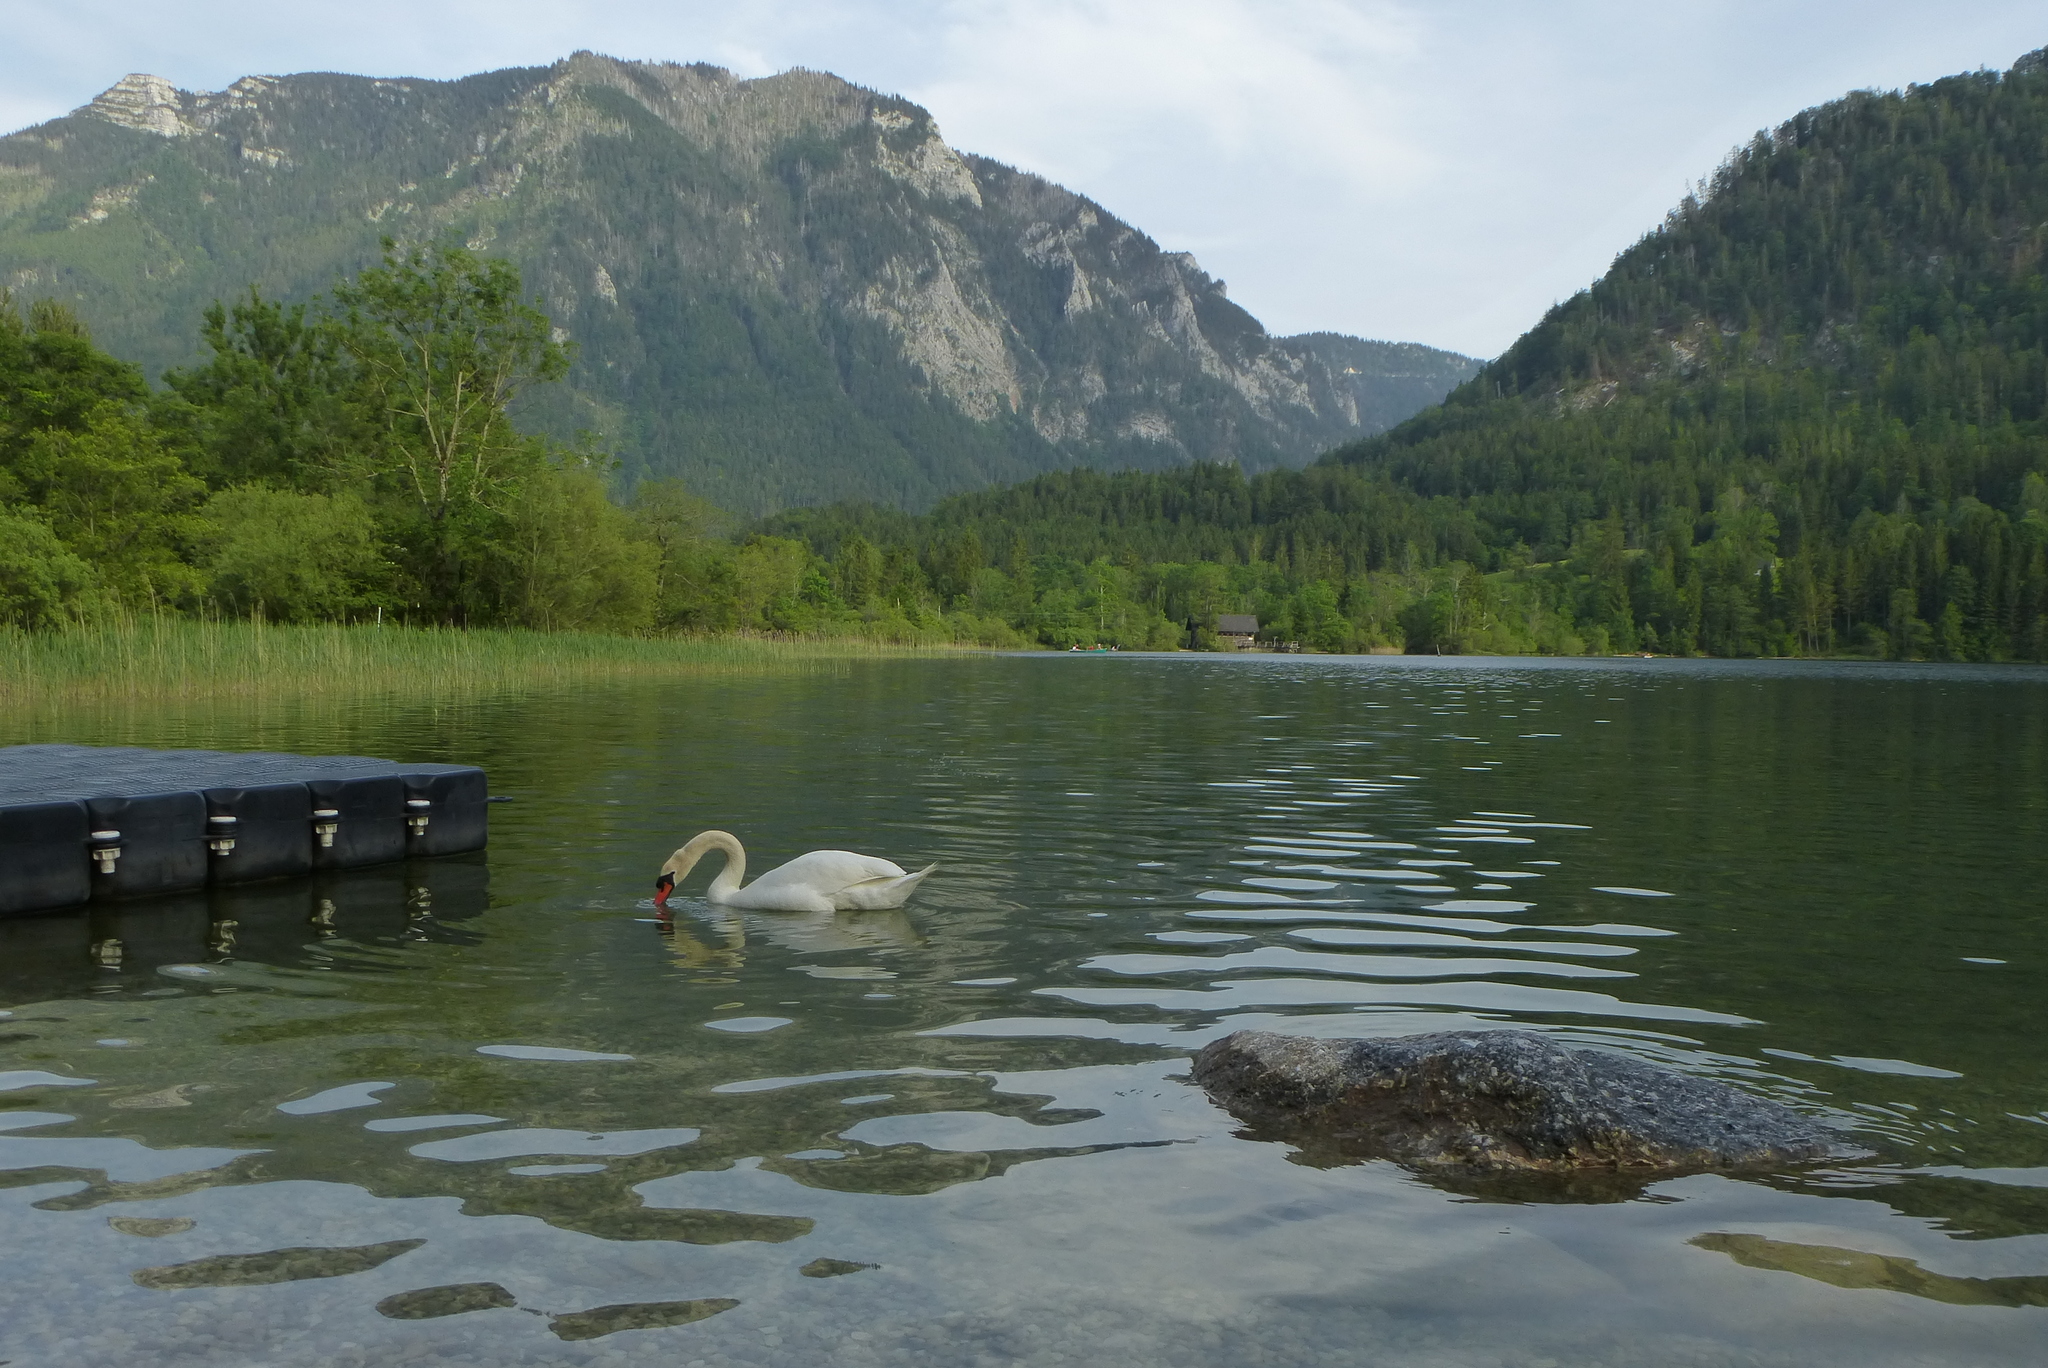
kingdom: Animalia
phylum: Chordata
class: Aves
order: Anseriformes
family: Anatidae
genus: Cygnus
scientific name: Cygnus olor
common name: Mute swan
